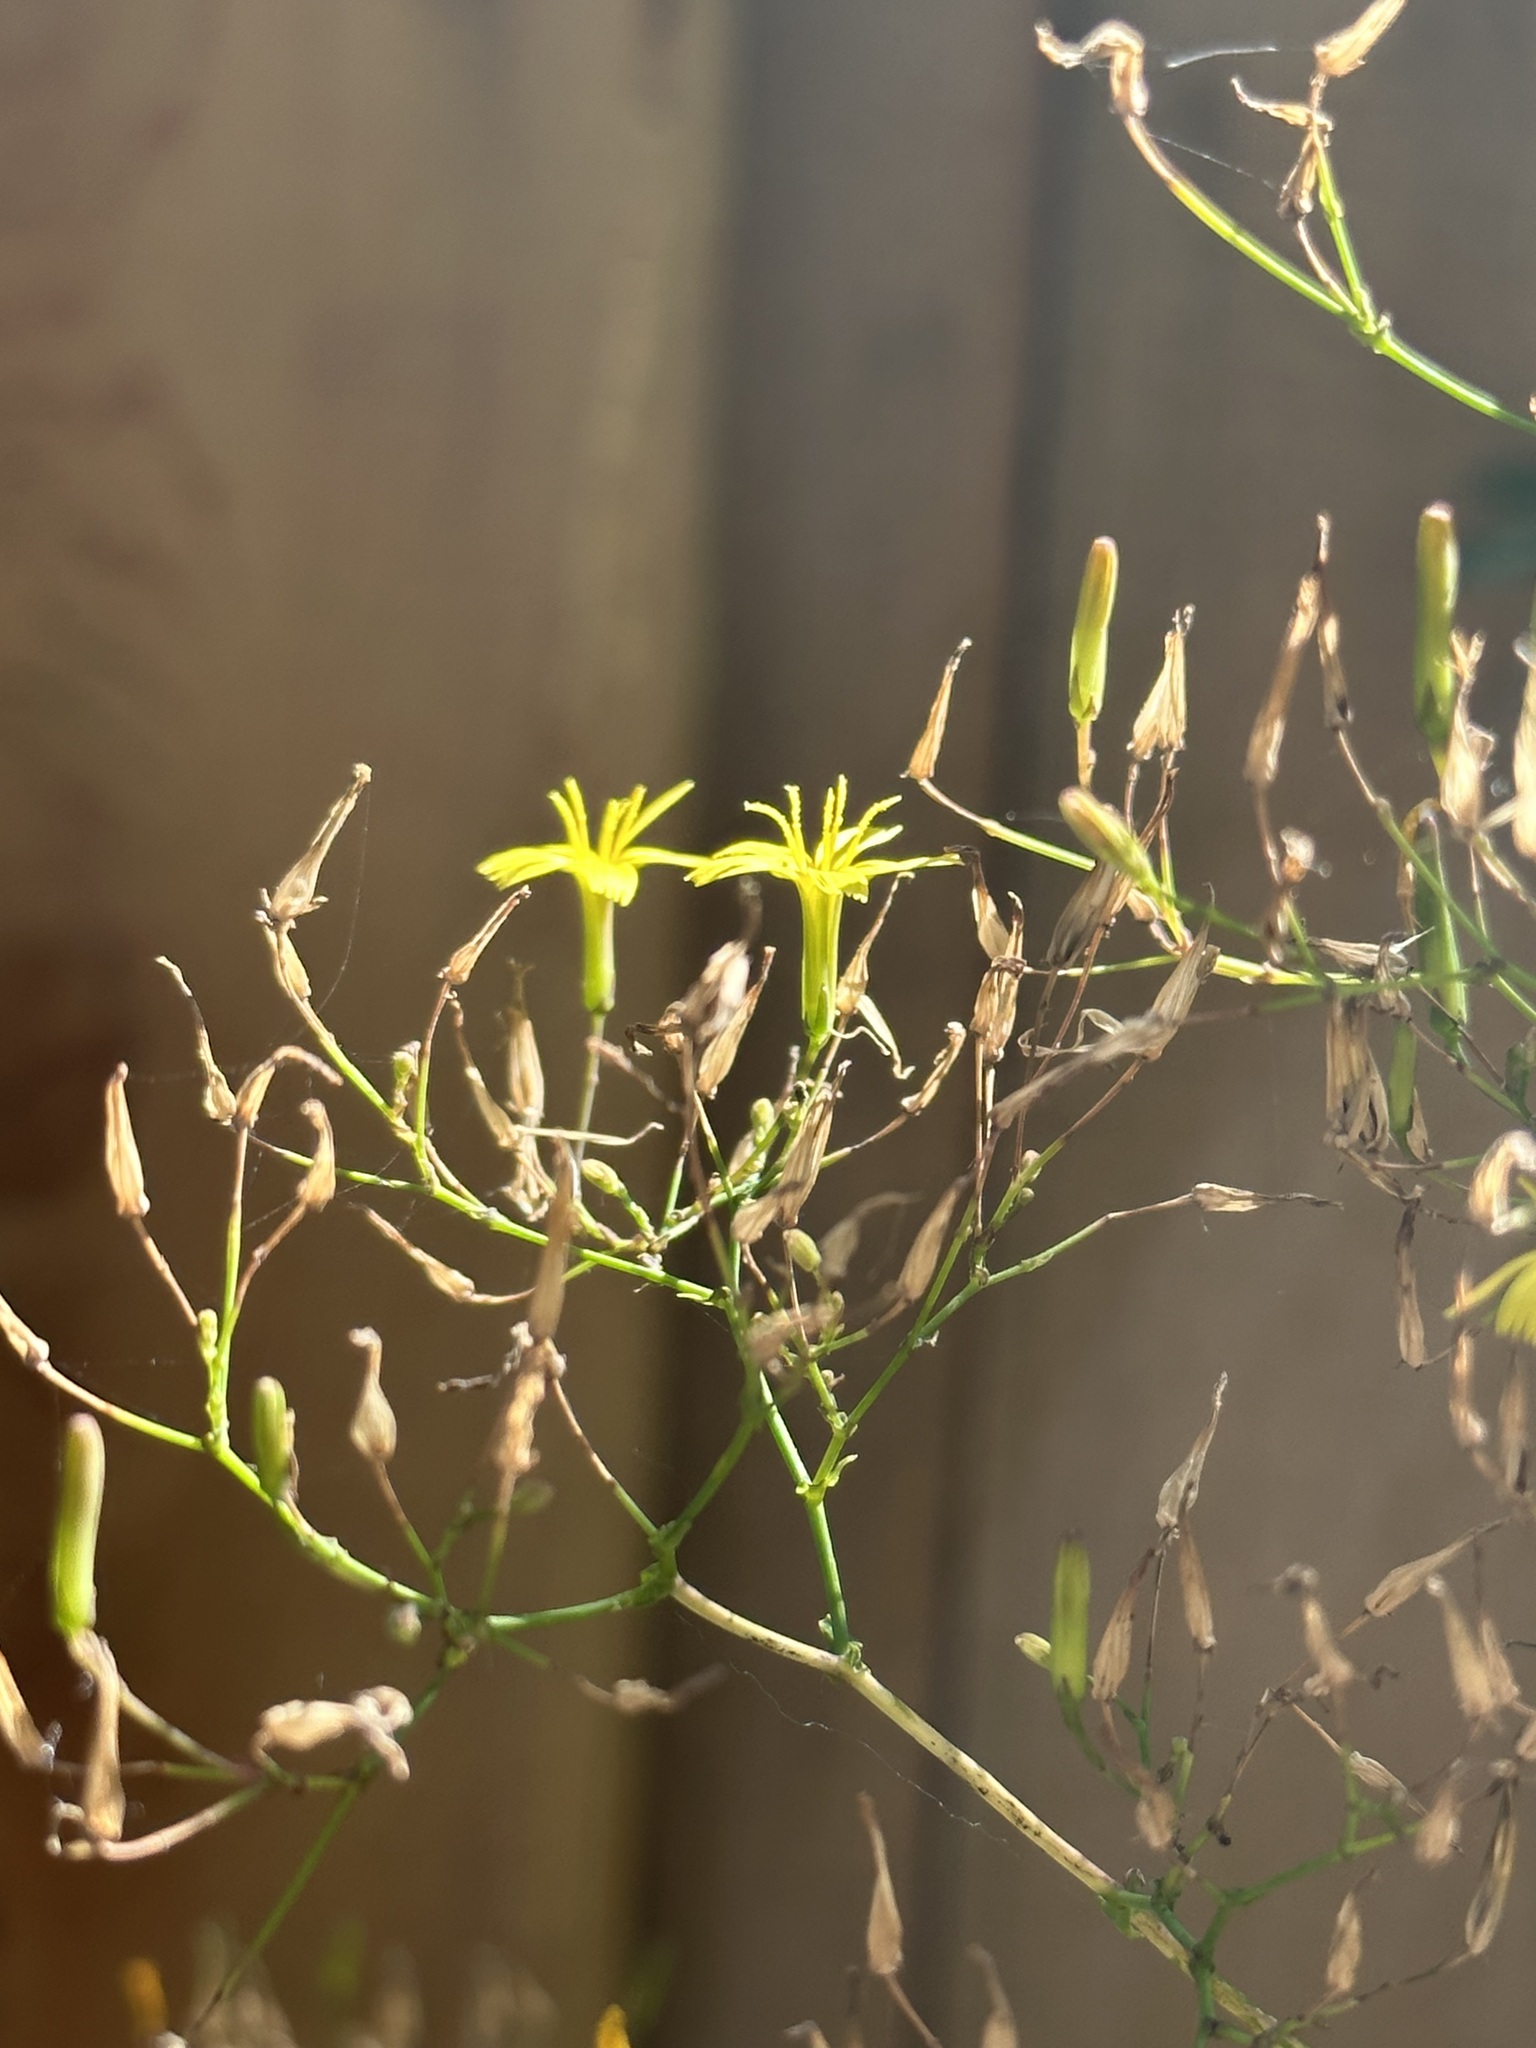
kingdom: Plantae
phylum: Tracheophyta
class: Magnoliopsida
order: Asterales
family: Asteraceae
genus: Mycelis
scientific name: Mycelis muralis
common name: Wall lettuce
